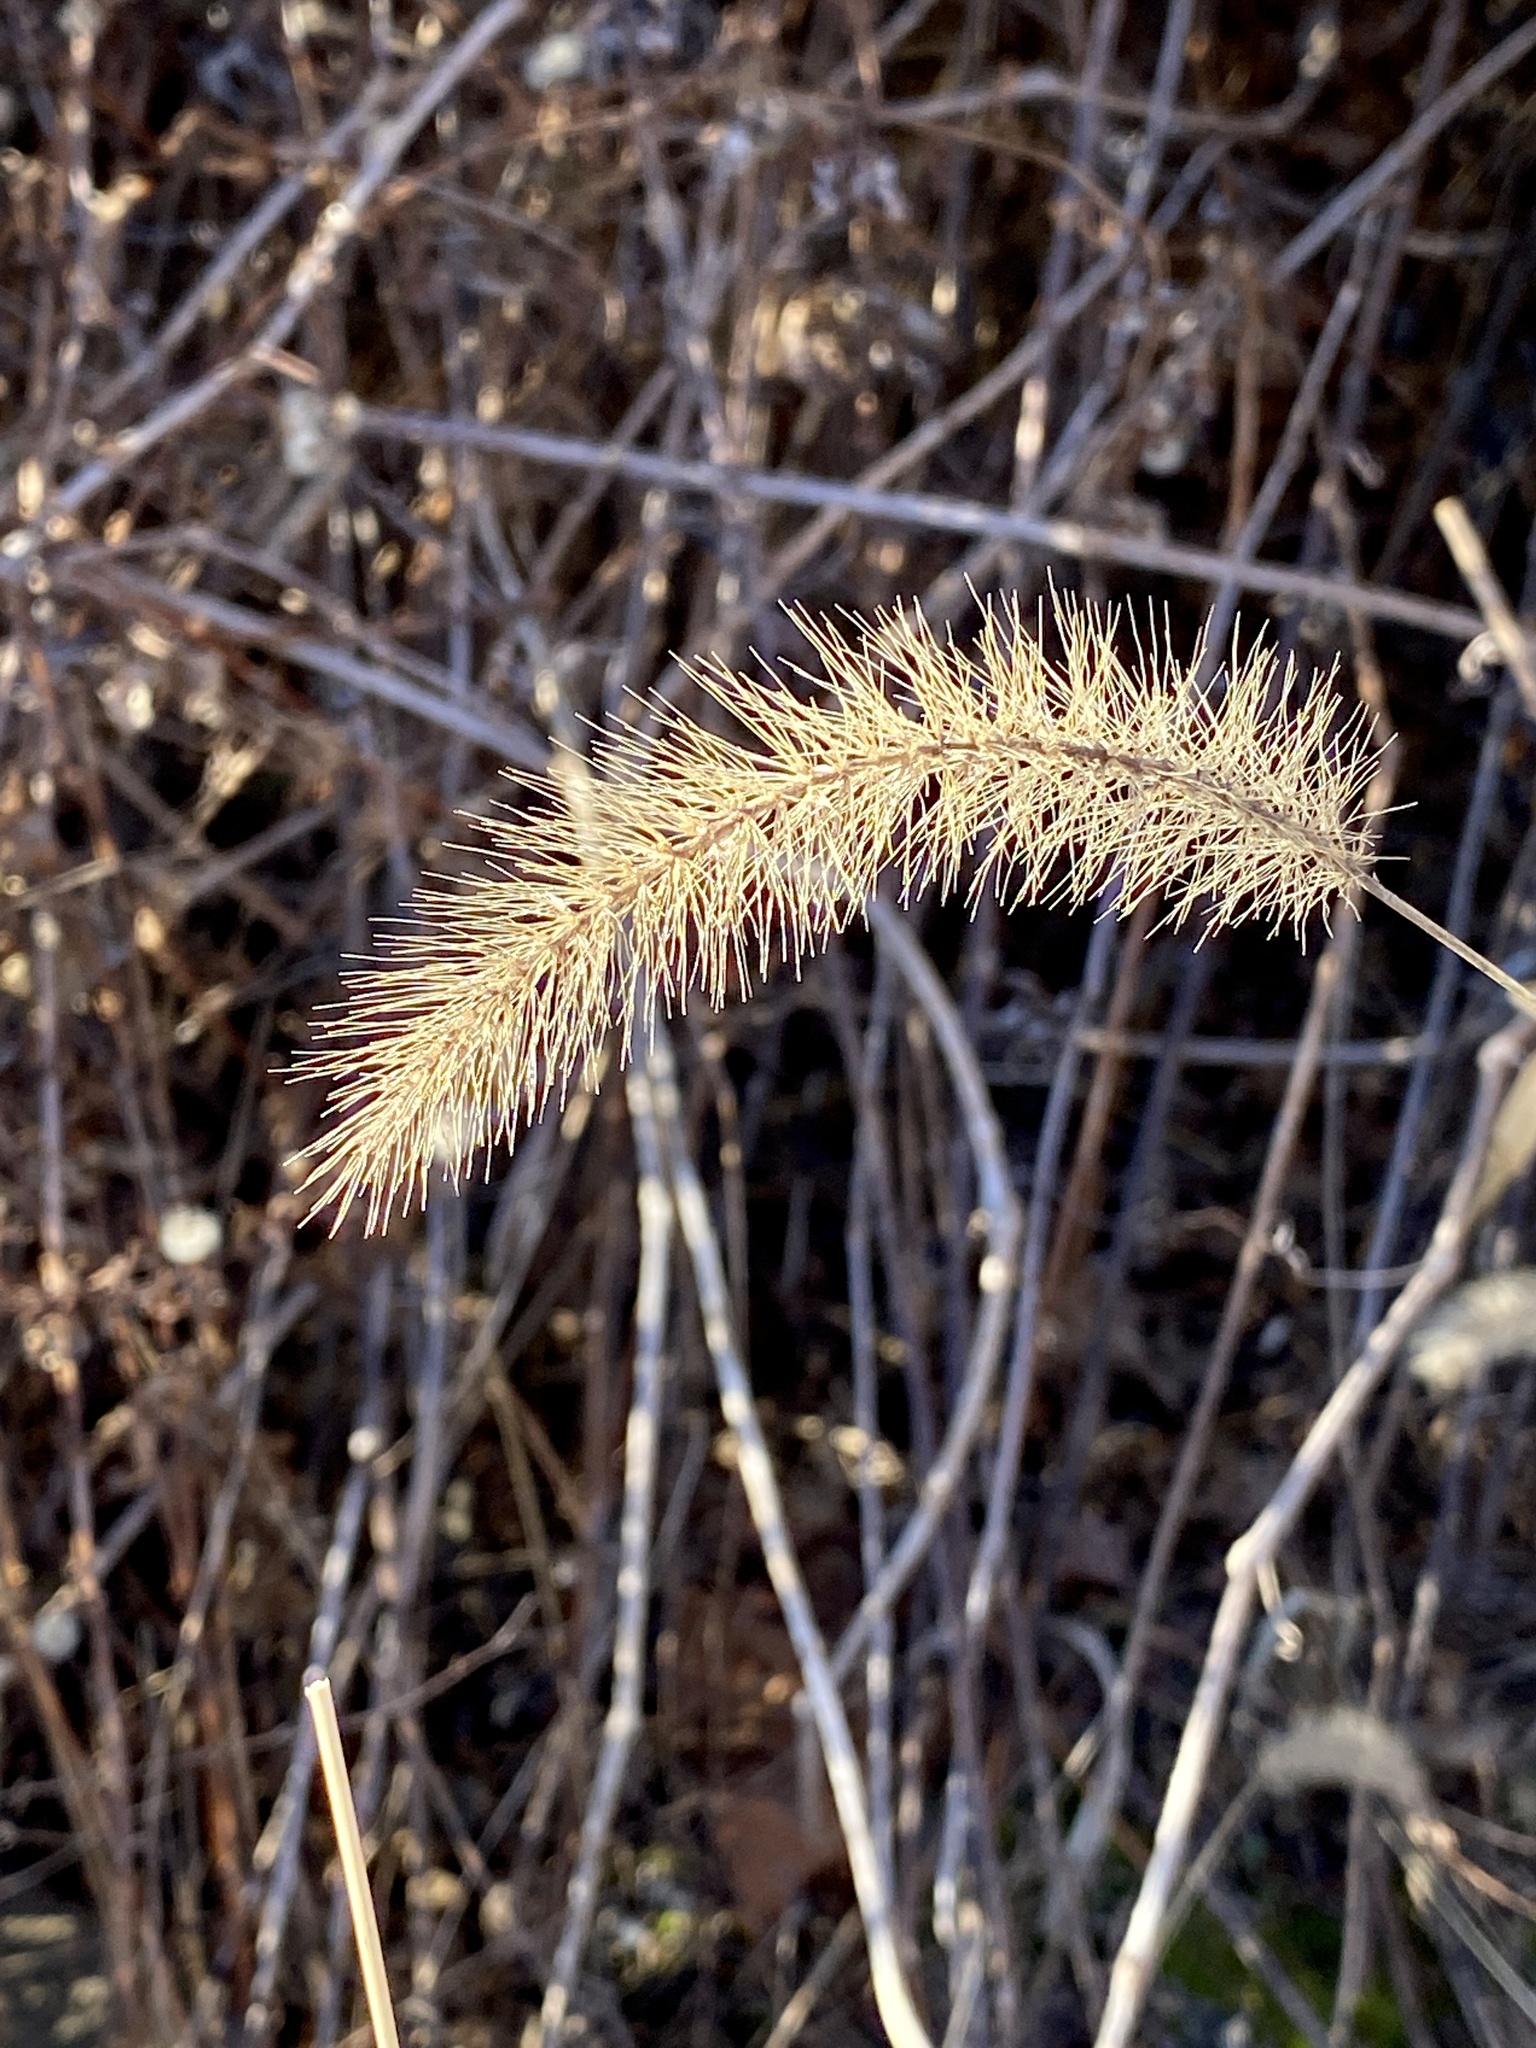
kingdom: Plantae
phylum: Tracheophyta
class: Liliopsida
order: Poales
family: Poaceae
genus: Setaria
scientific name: Setaria faberi
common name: Nodding bristle-grass
